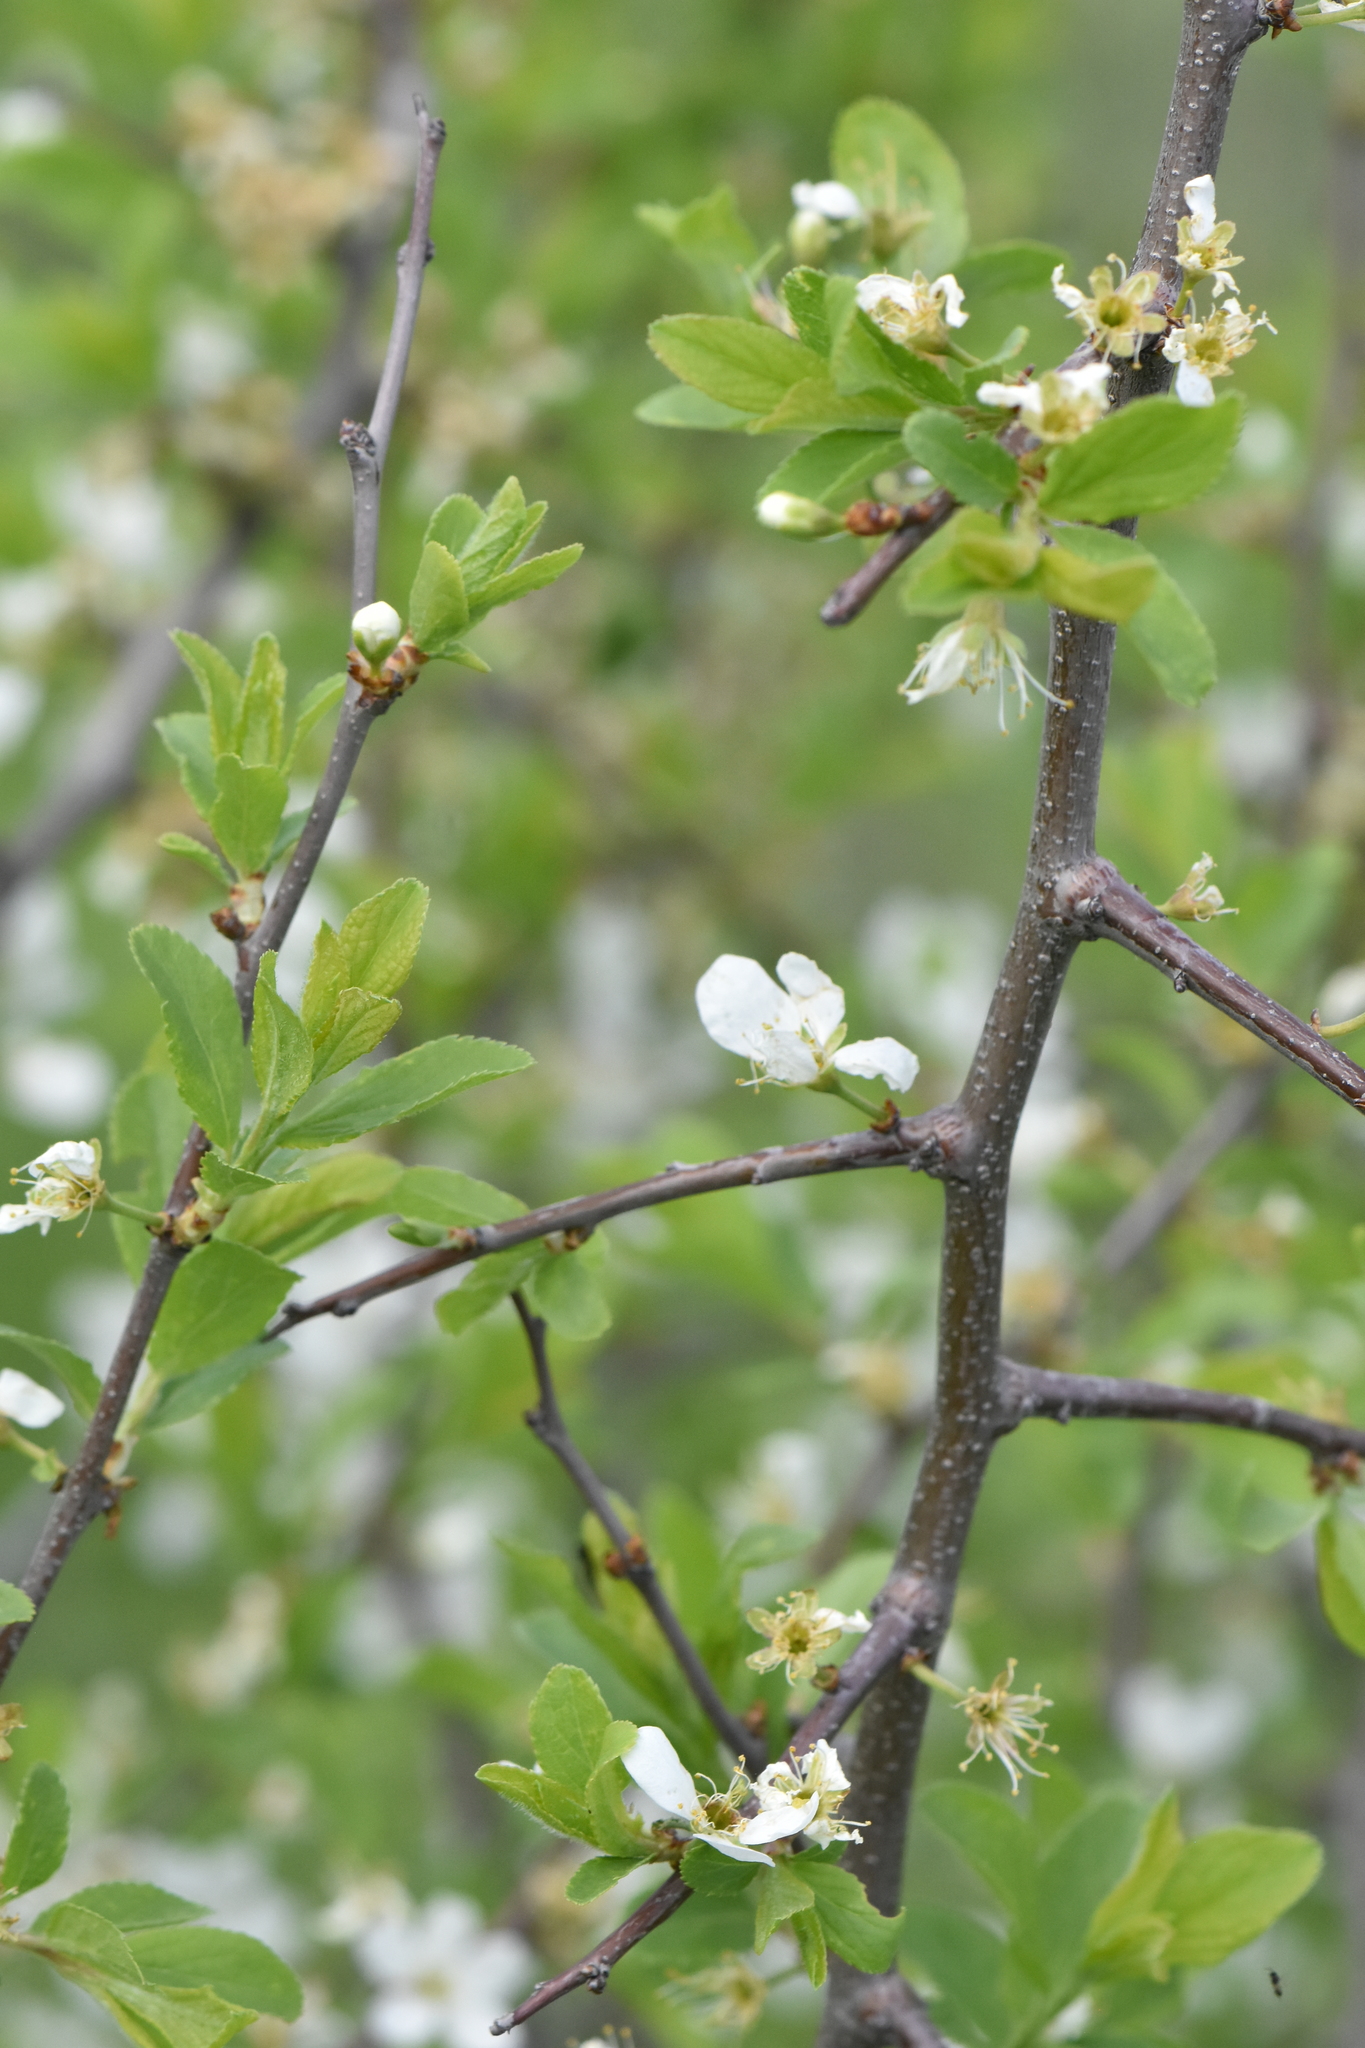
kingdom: Plantae
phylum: Tracheophyta
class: Magnoliopsida
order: Rosales
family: Rosaceae
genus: Prunus
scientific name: Prunus spinosa
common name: Blackthorn
